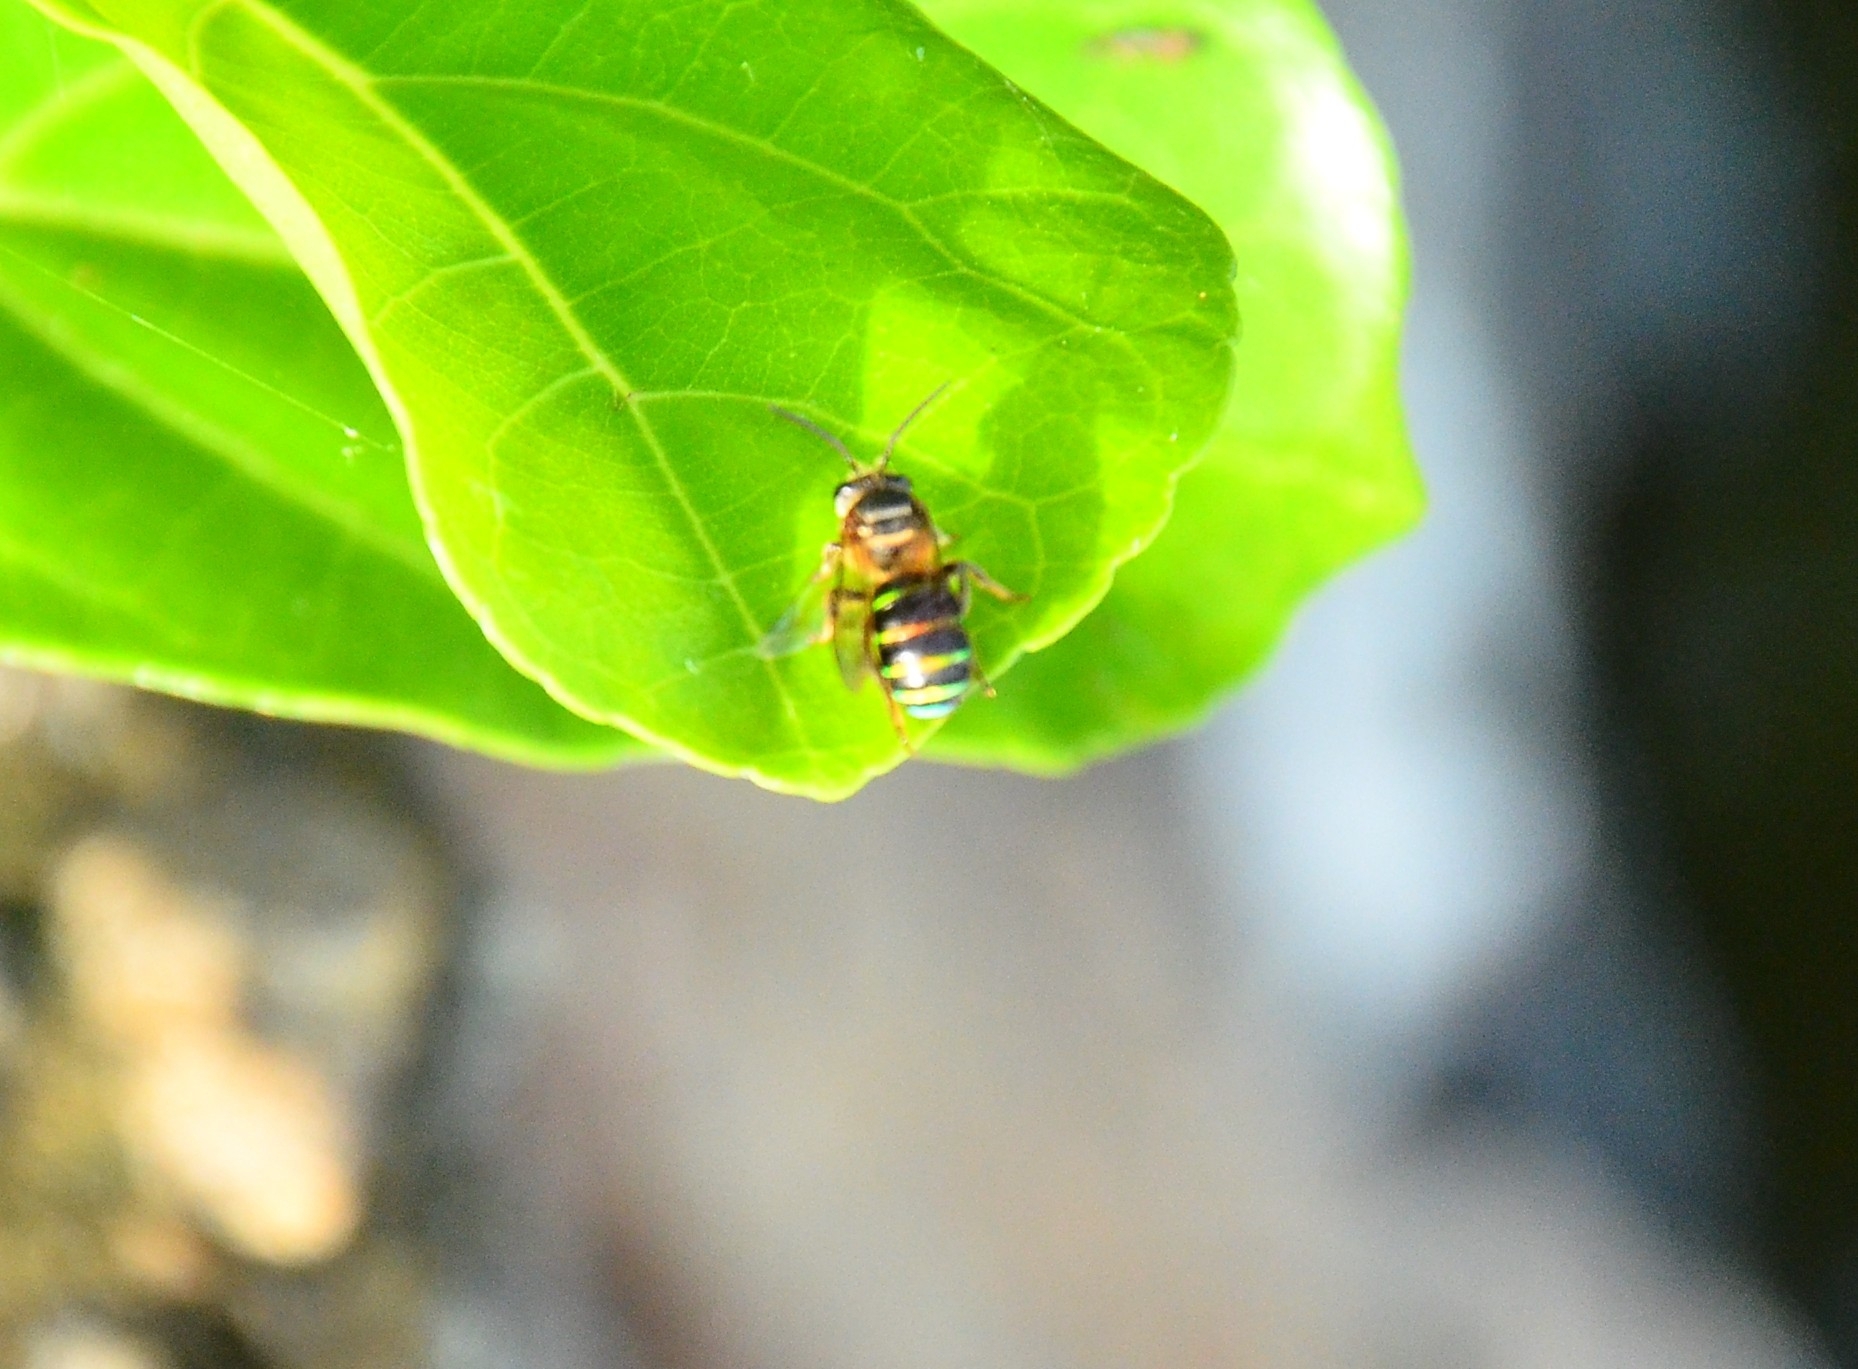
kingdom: Animalia
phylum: Arthropoda
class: Insecta
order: Hymenoptera
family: Halictidae
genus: Nomia
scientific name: Nomia strigata
